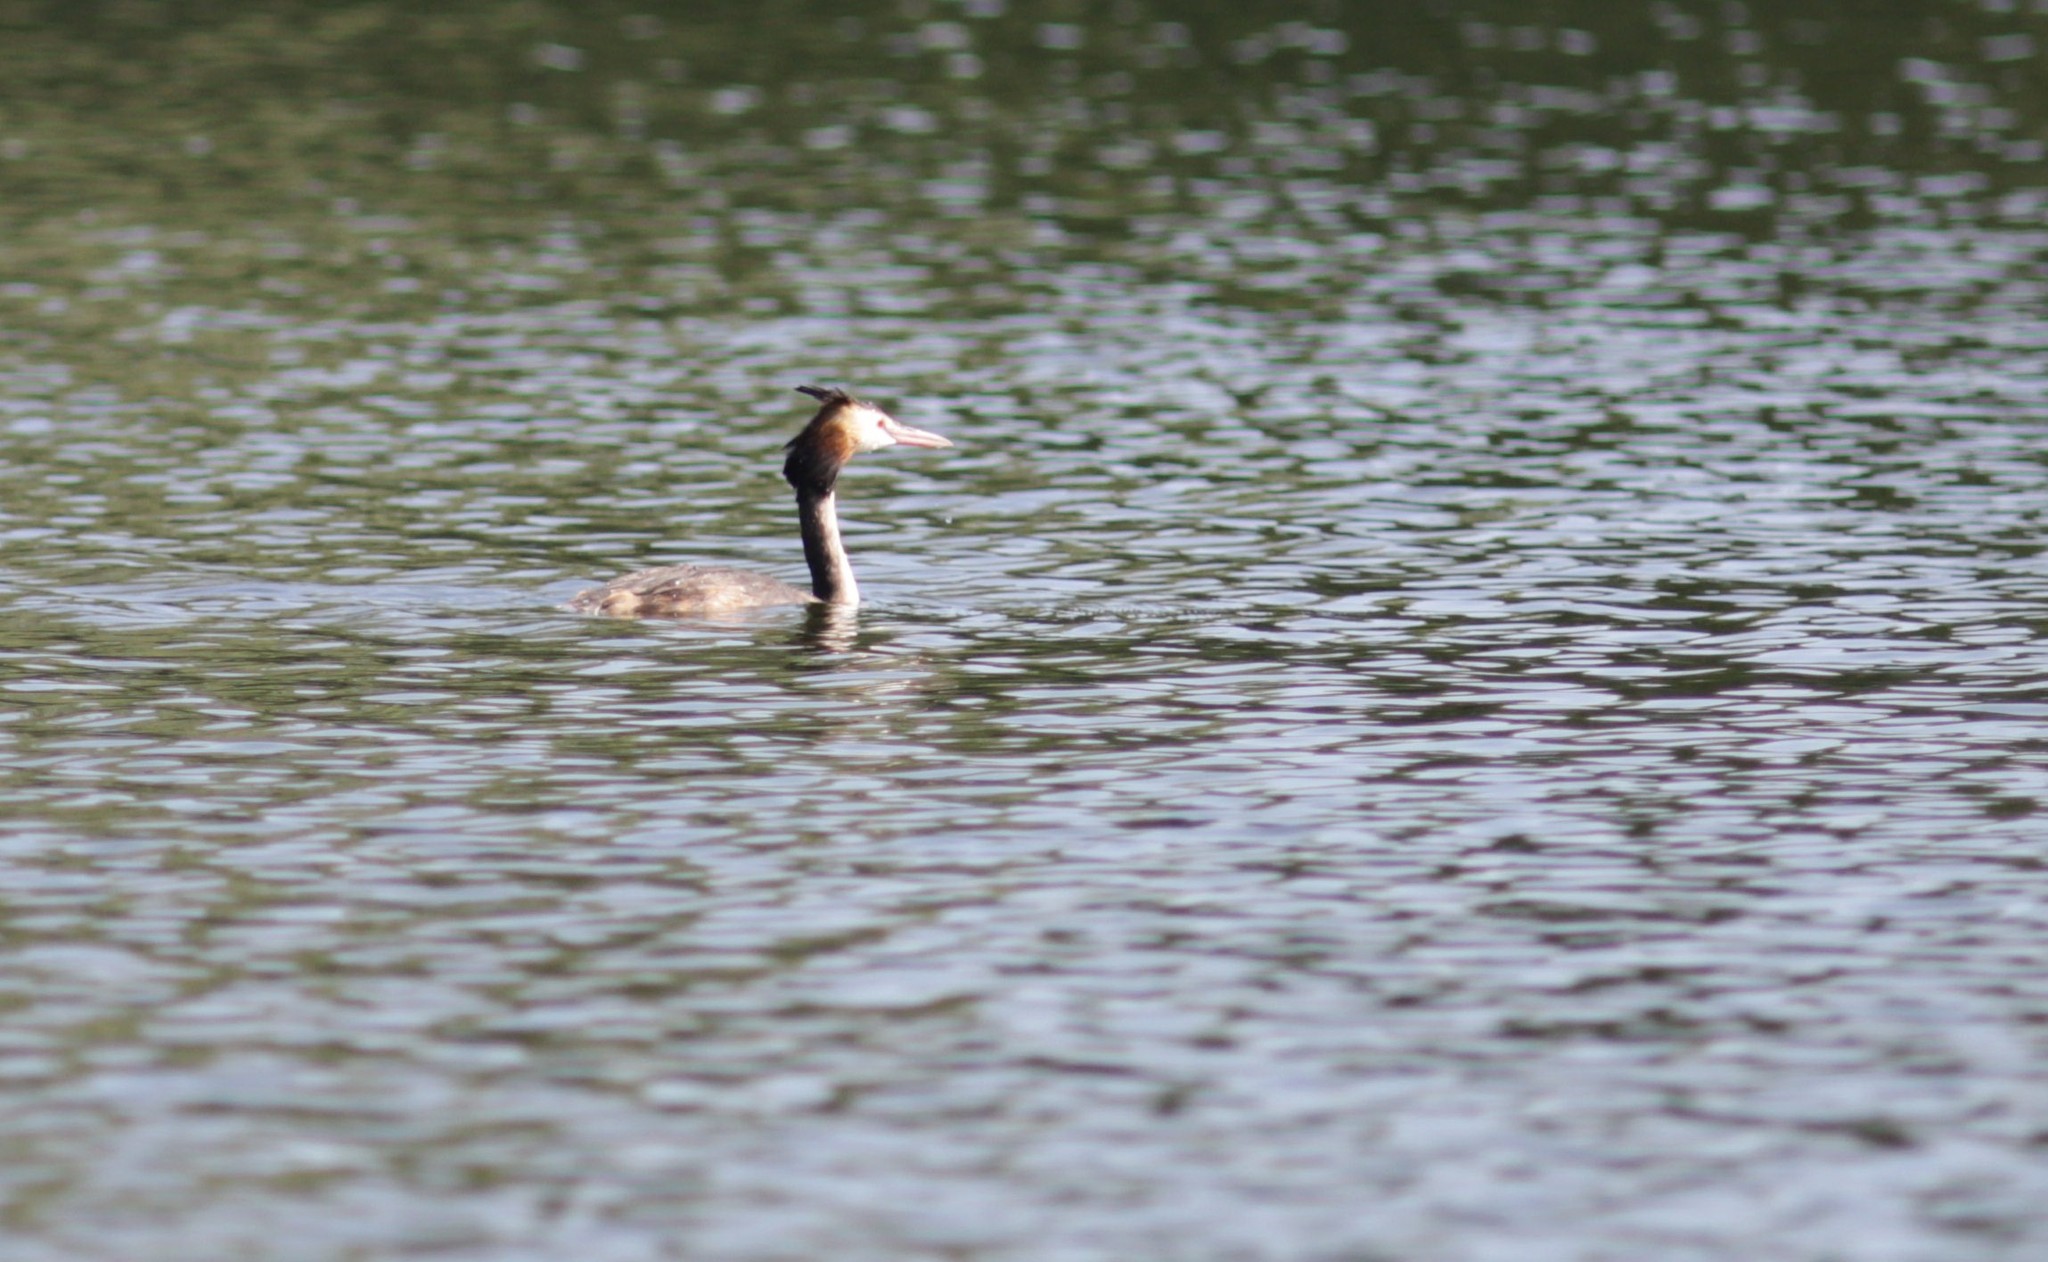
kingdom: Animalia
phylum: Chordata
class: Aves
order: Podicipediformes
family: Podicipedidae
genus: Podiceps
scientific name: Podiceps cristatus
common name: Great crested grebe
